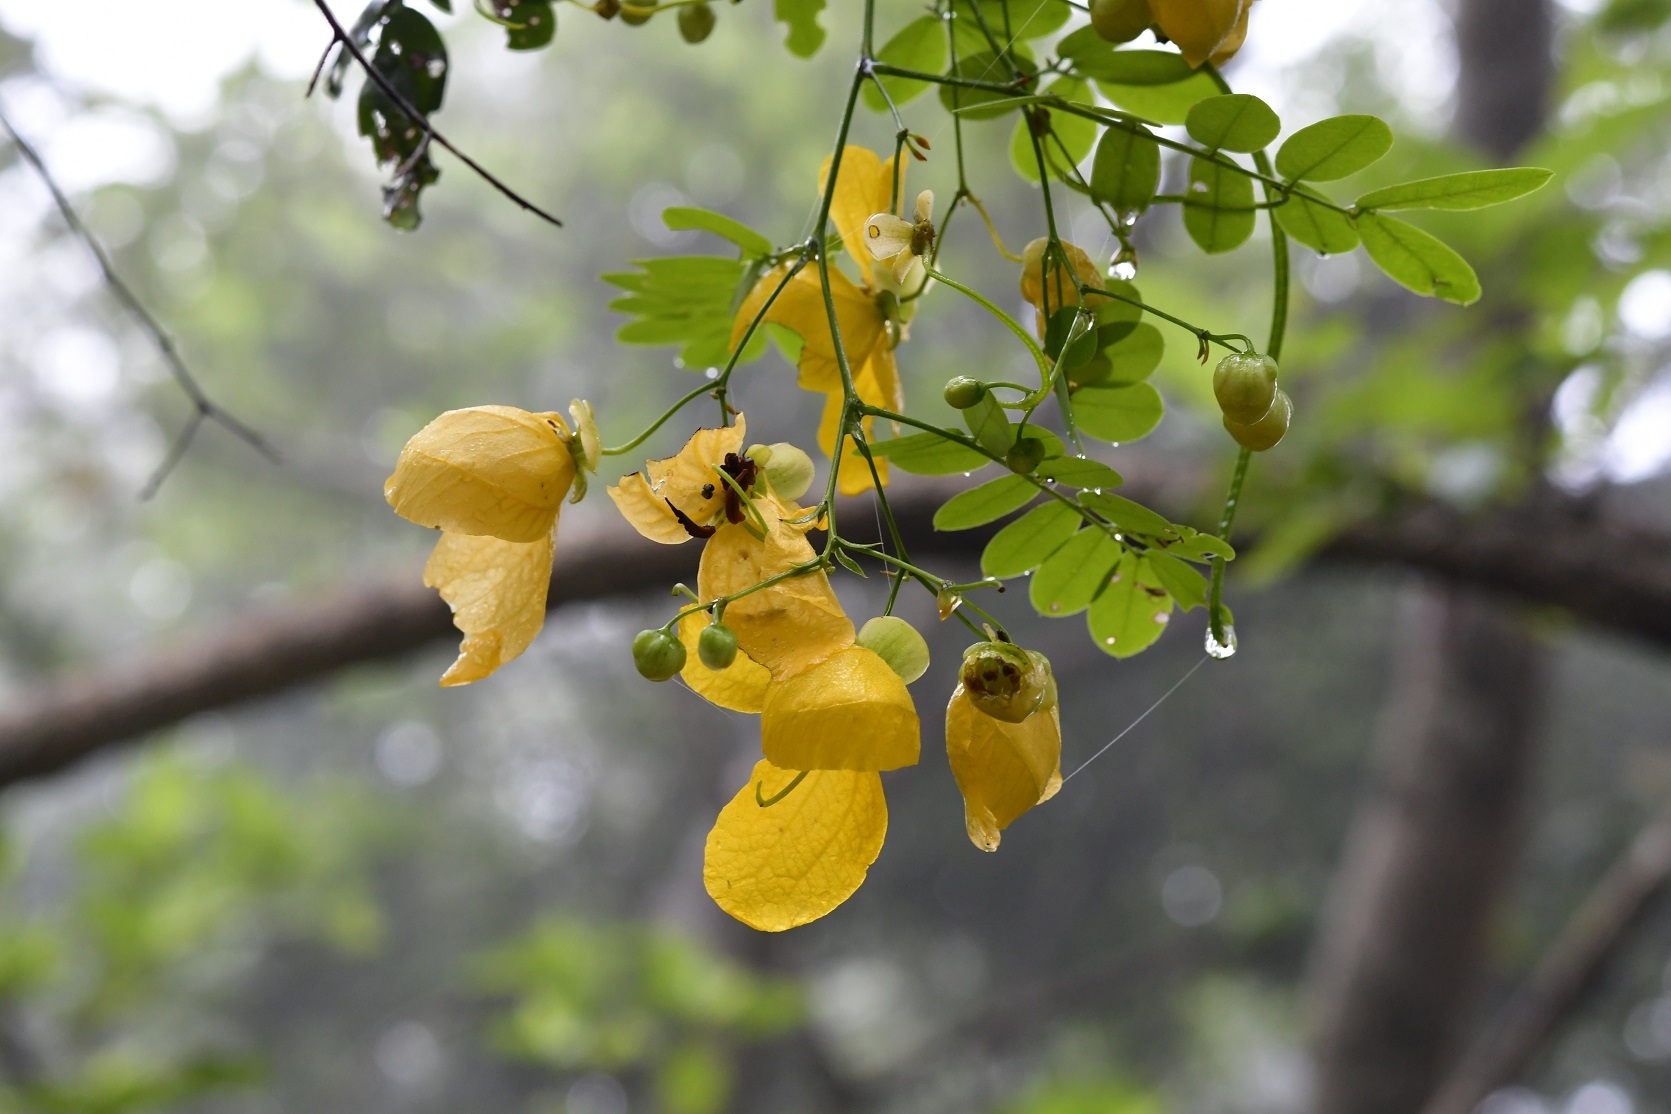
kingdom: Plantae
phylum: Tracheophyta
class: Magnoliopsida
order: Fabales
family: Fabaceae
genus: Senna
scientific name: Senna pallida
